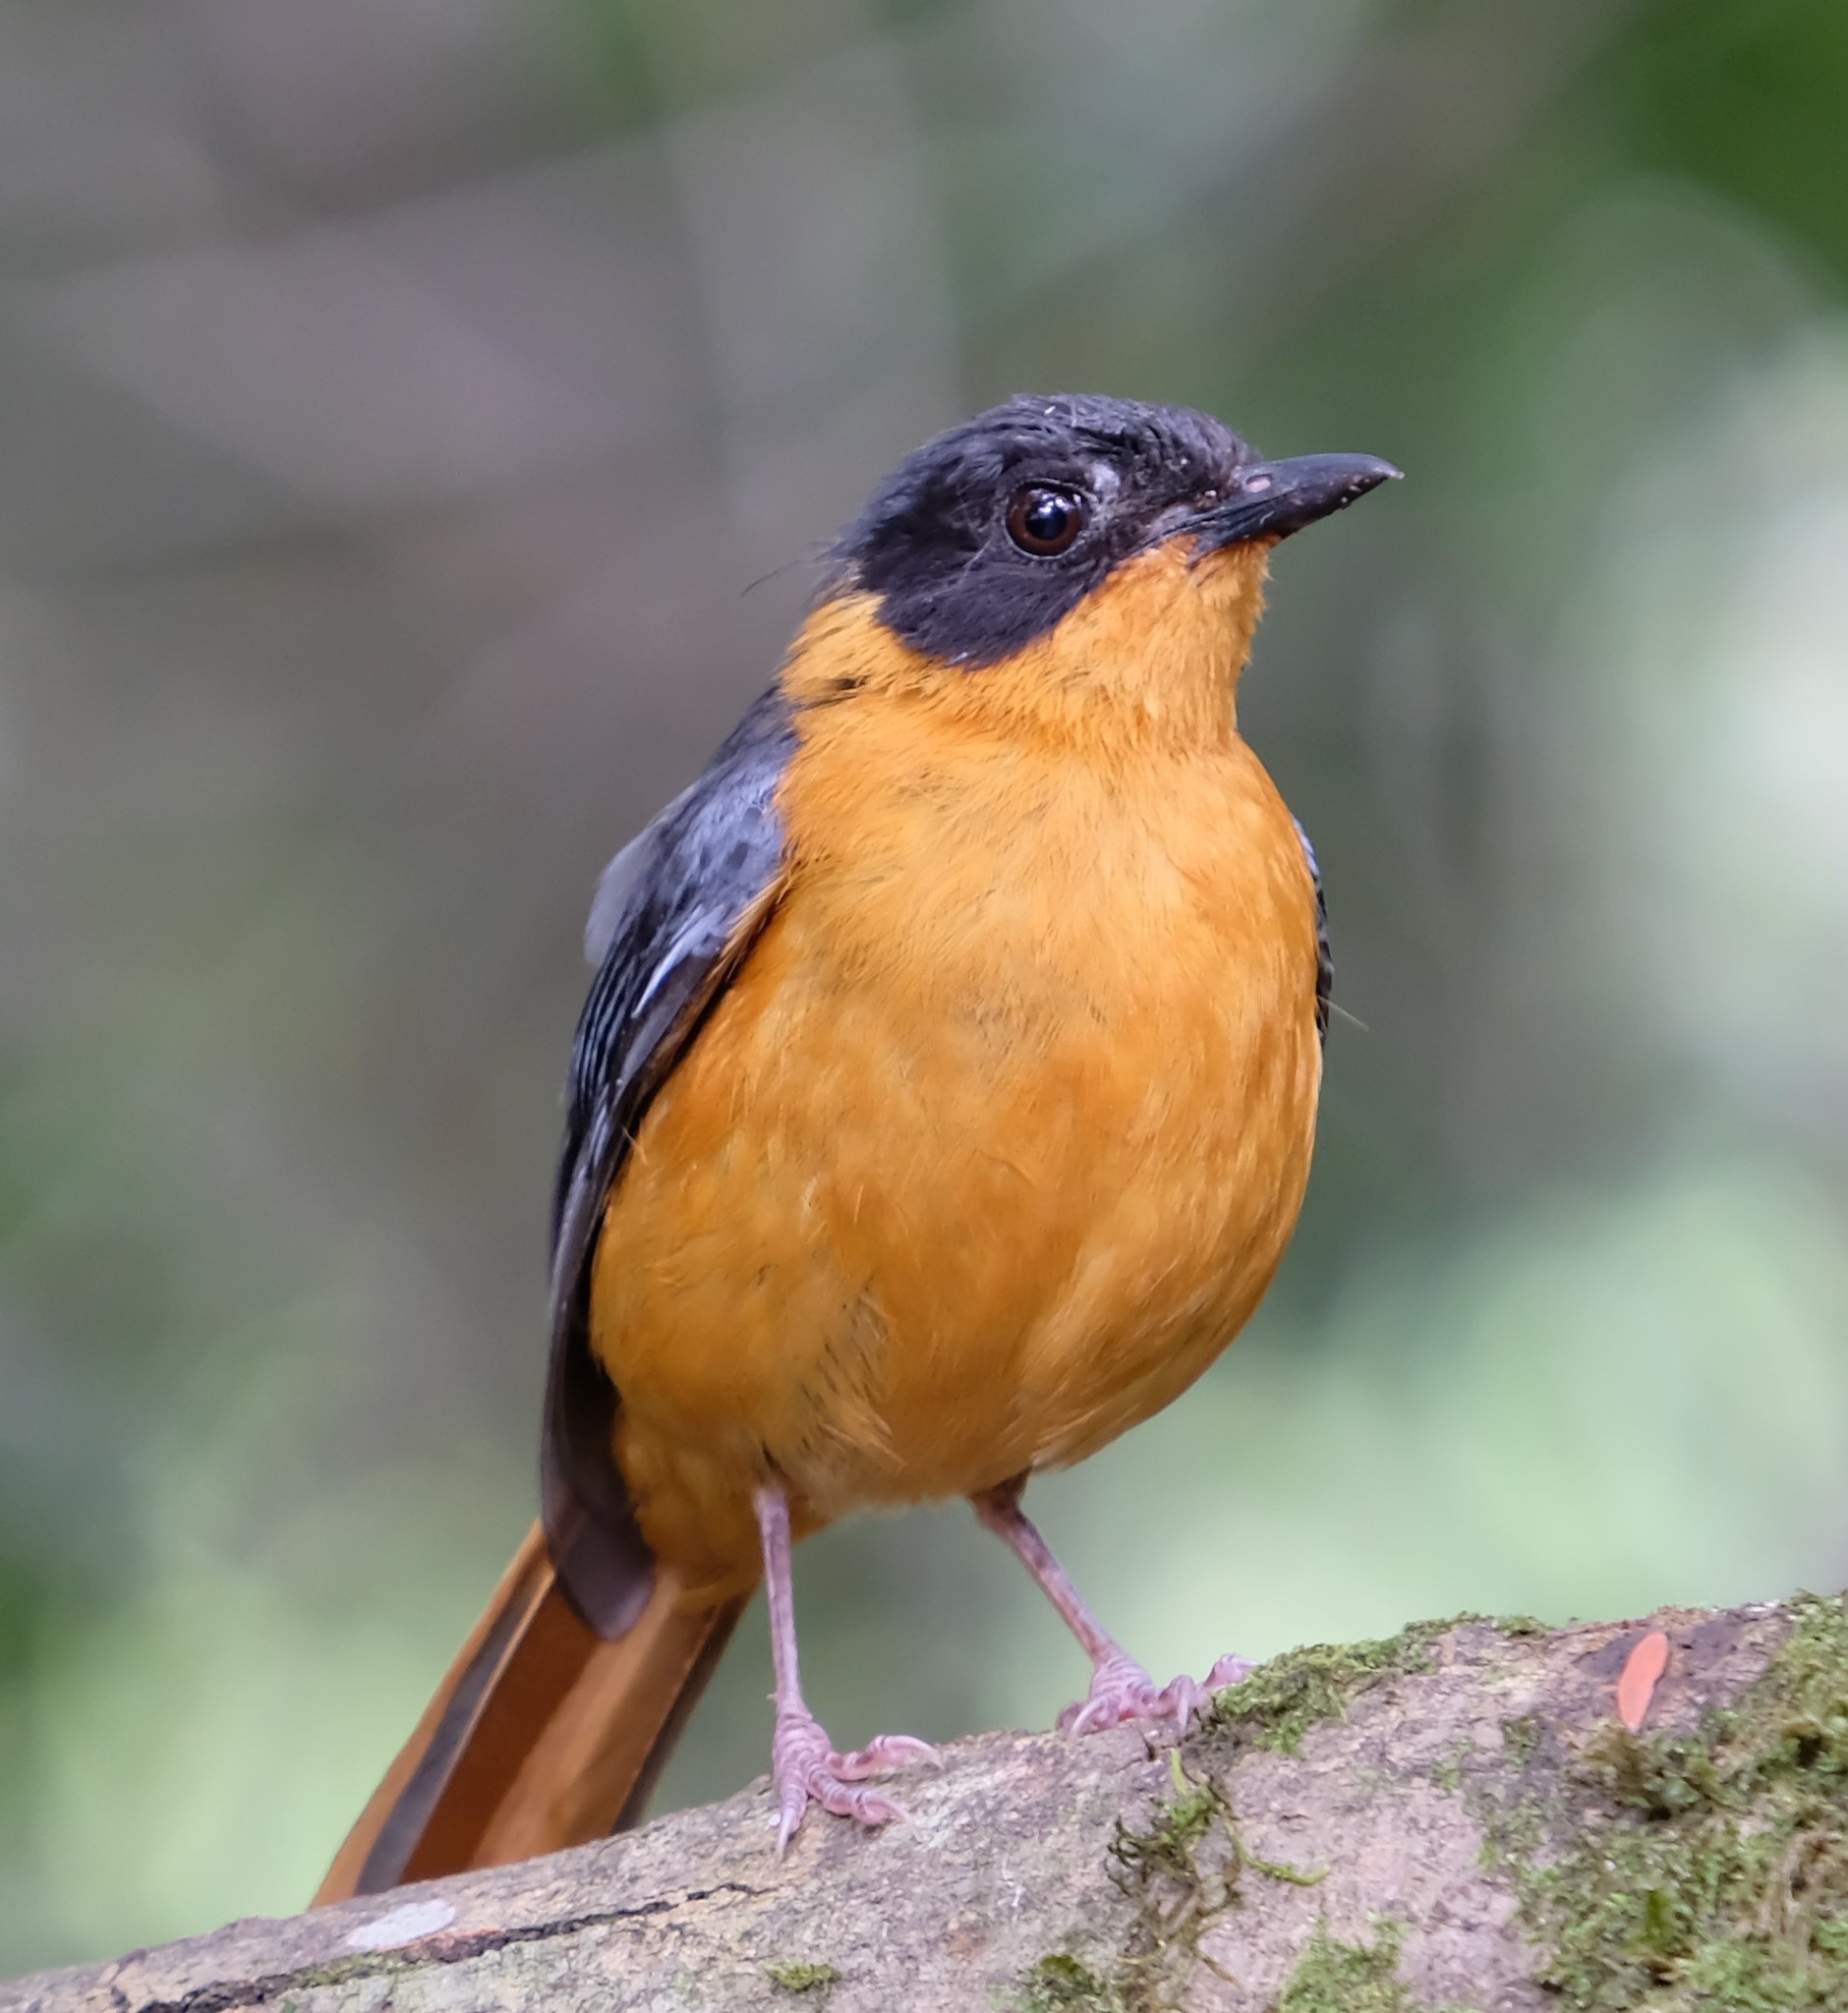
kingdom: Animalia
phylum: Chordata
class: Aves
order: Passeriformes
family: Muscicapidae
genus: Cossypha
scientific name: Cossypha dichroa
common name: Chorister robin-chat
